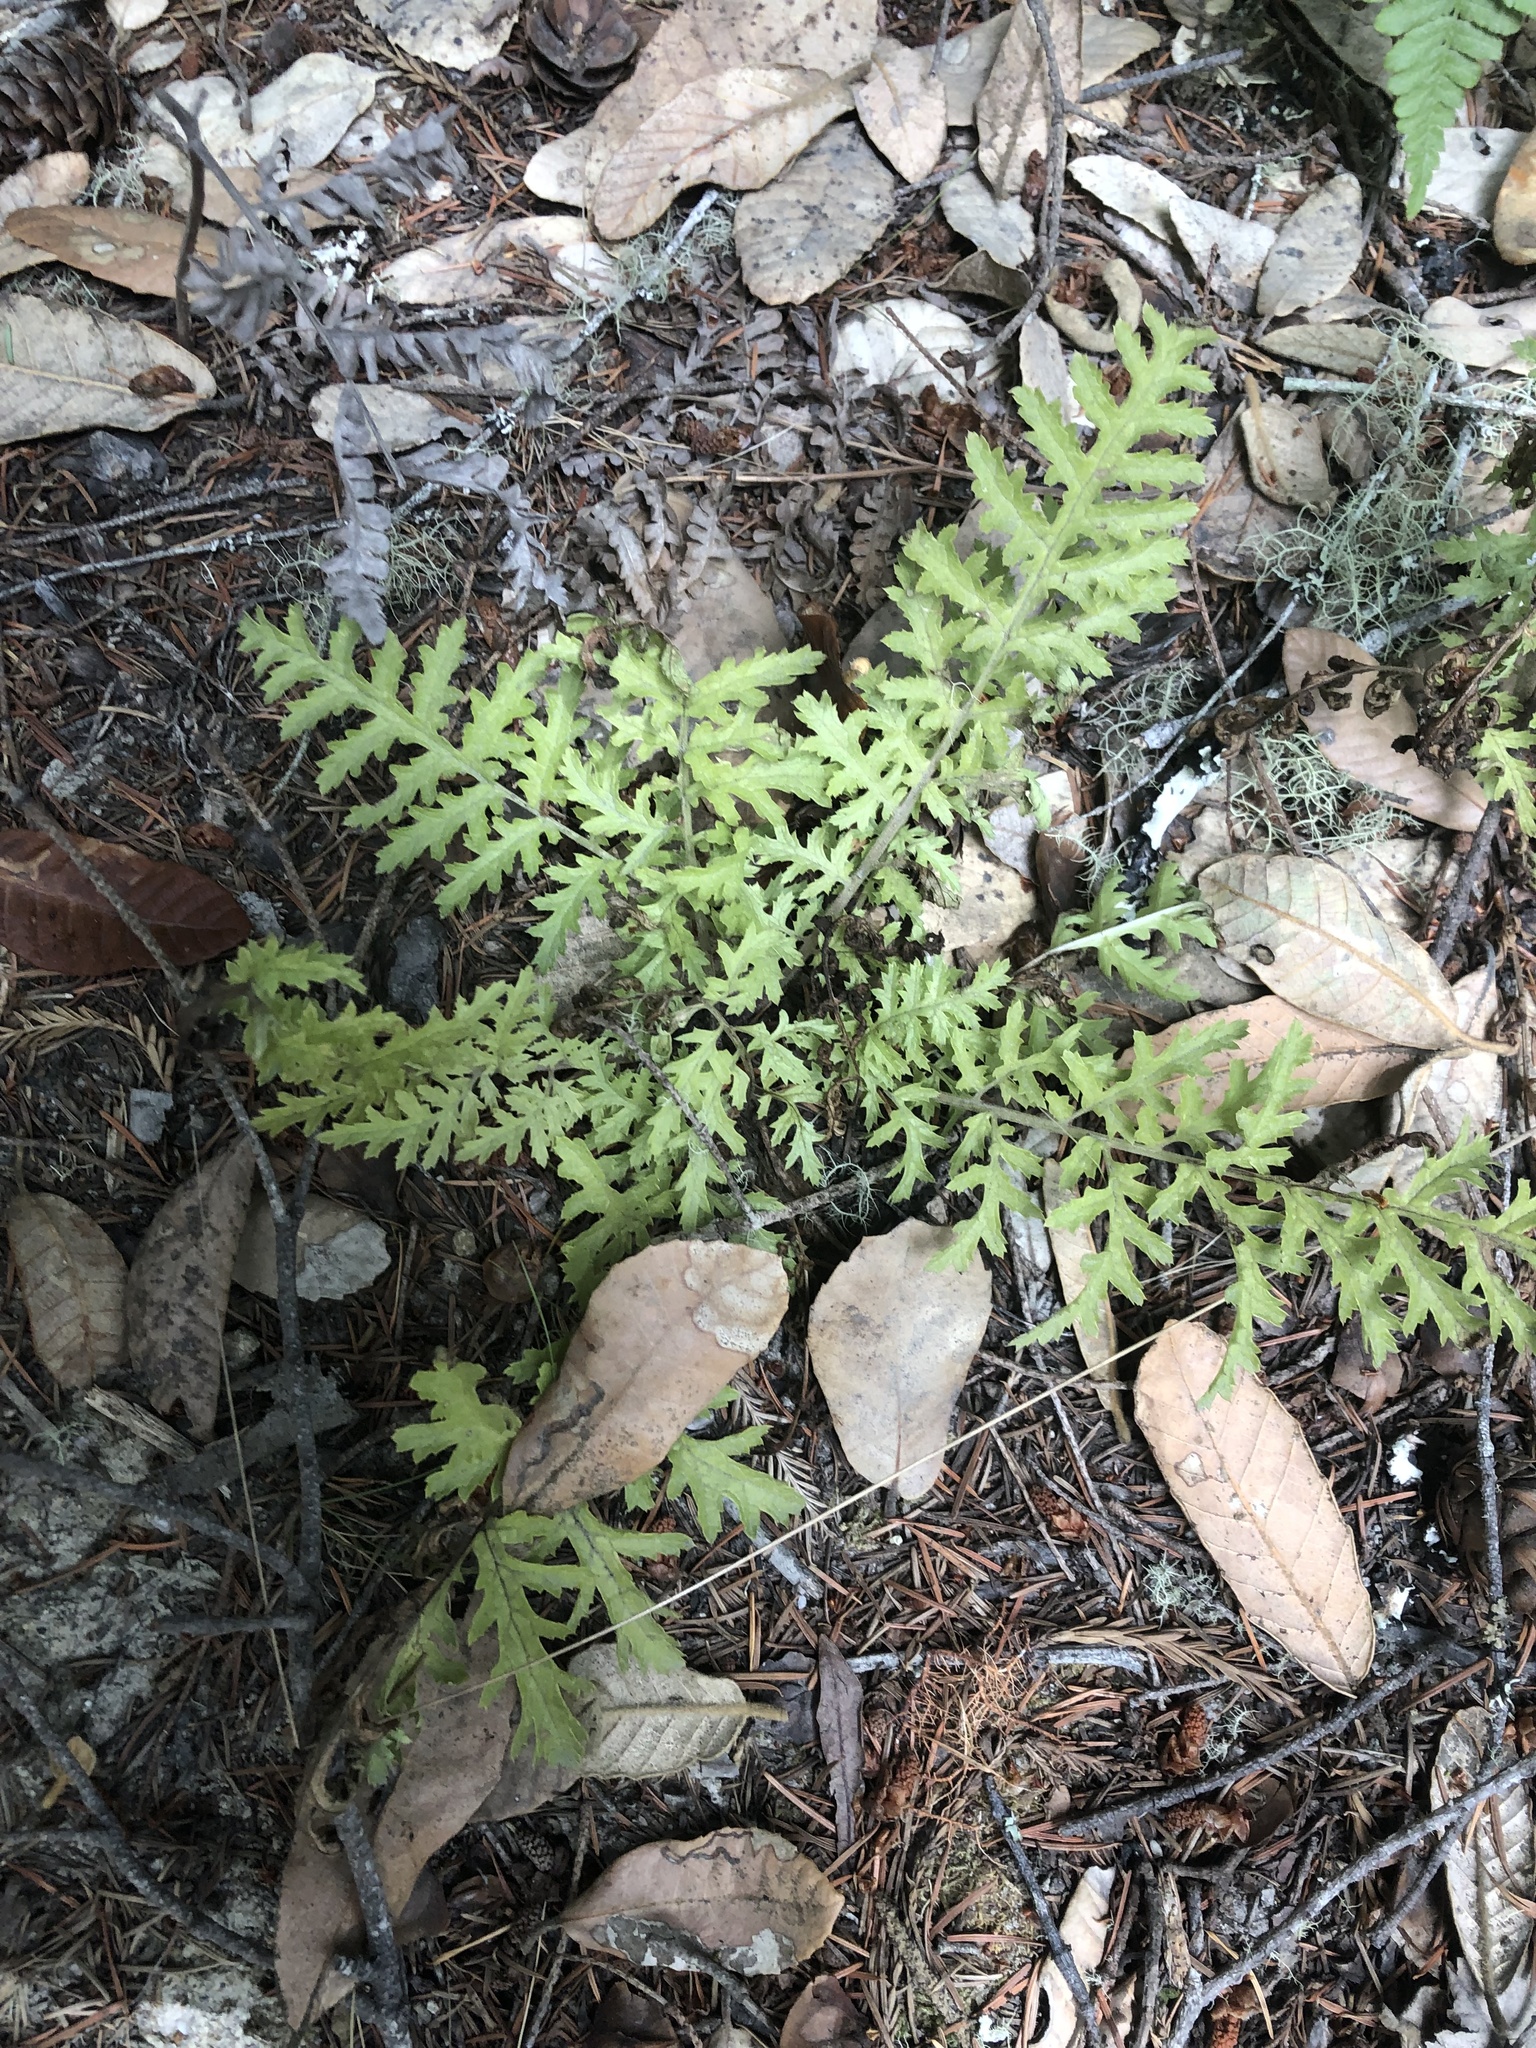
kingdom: Plantae
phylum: Tracheophyta
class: Magnoliopsida
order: Lamiales
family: Orobanchaceae
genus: Pedicularis
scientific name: Pedicularis densiflora
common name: Indian warrior
